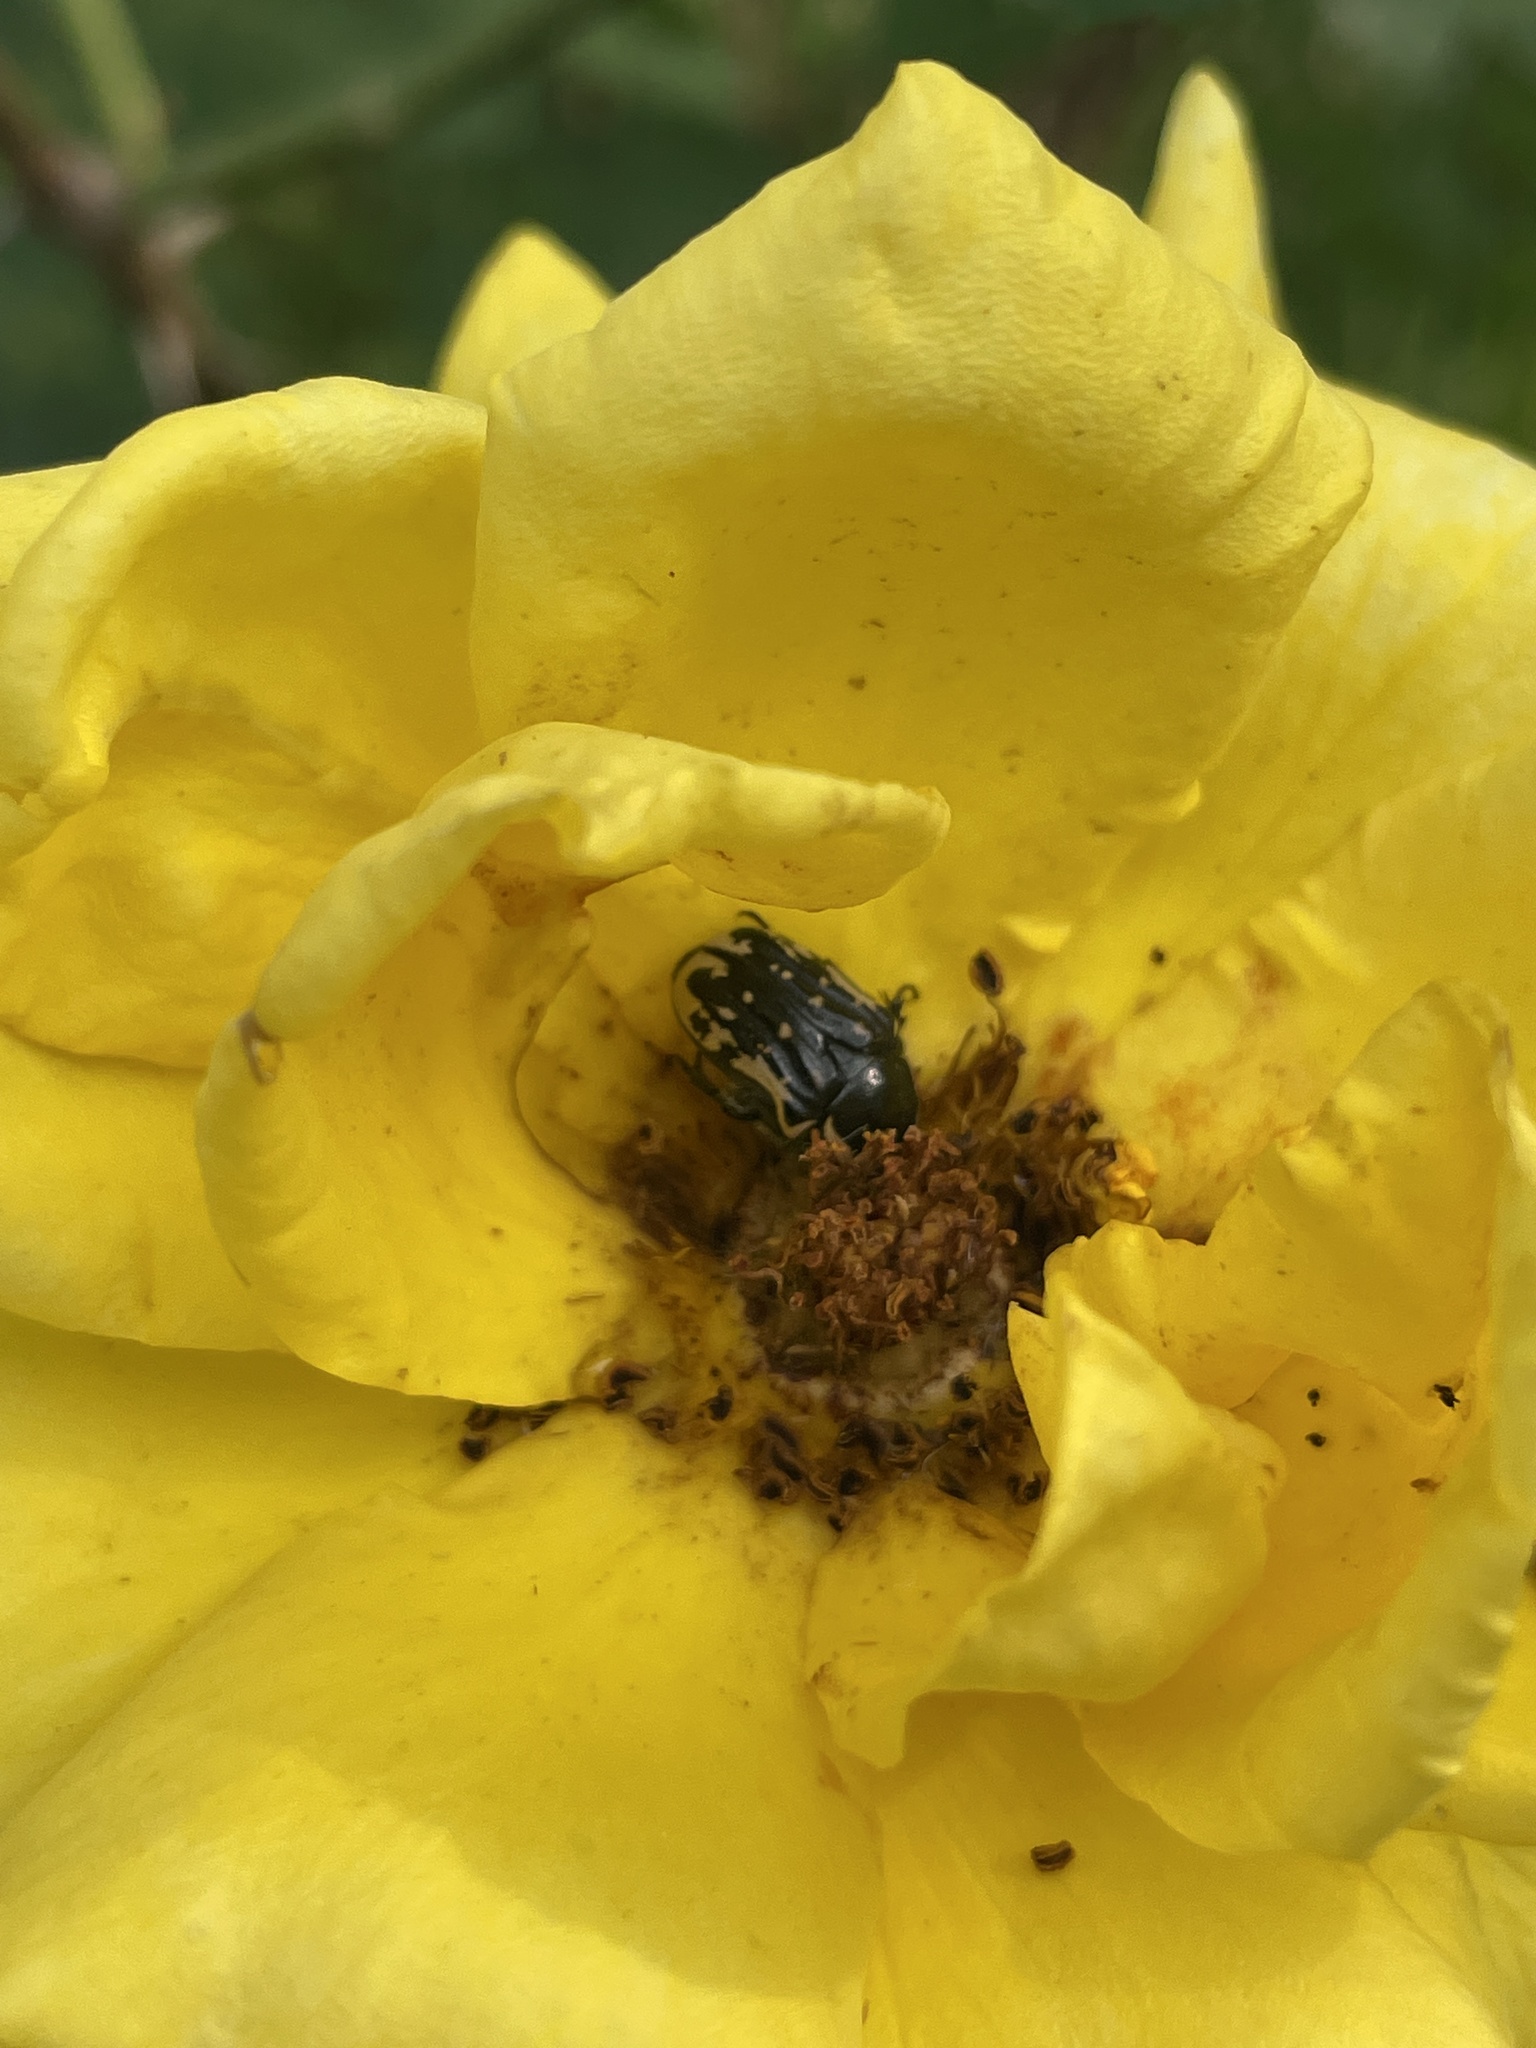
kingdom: Animalia
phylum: Arthropoda
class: Insecta
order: Coleoptera
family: Scarabaeidae
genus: Euphoria
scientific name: Euphoria kernii
